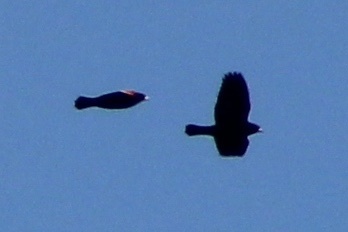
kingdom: Animalia
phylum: Chordata
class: Aves
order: Passeriformes
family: Icteridae
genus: Agelaius
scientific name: Agelaius phoeniceus
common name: Red-winged blackbird
